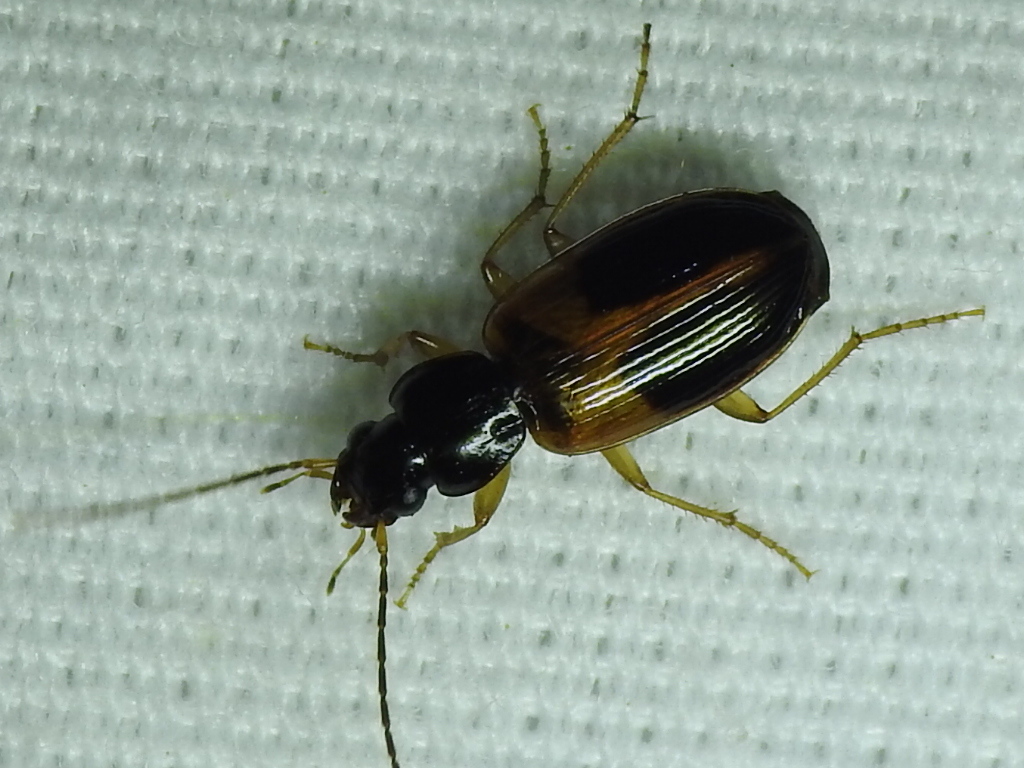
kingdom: Animalia
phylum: Arthropoda
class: Insecta
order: Coleoptera
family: Carabidae
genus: Badister
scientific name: Badister elegans
